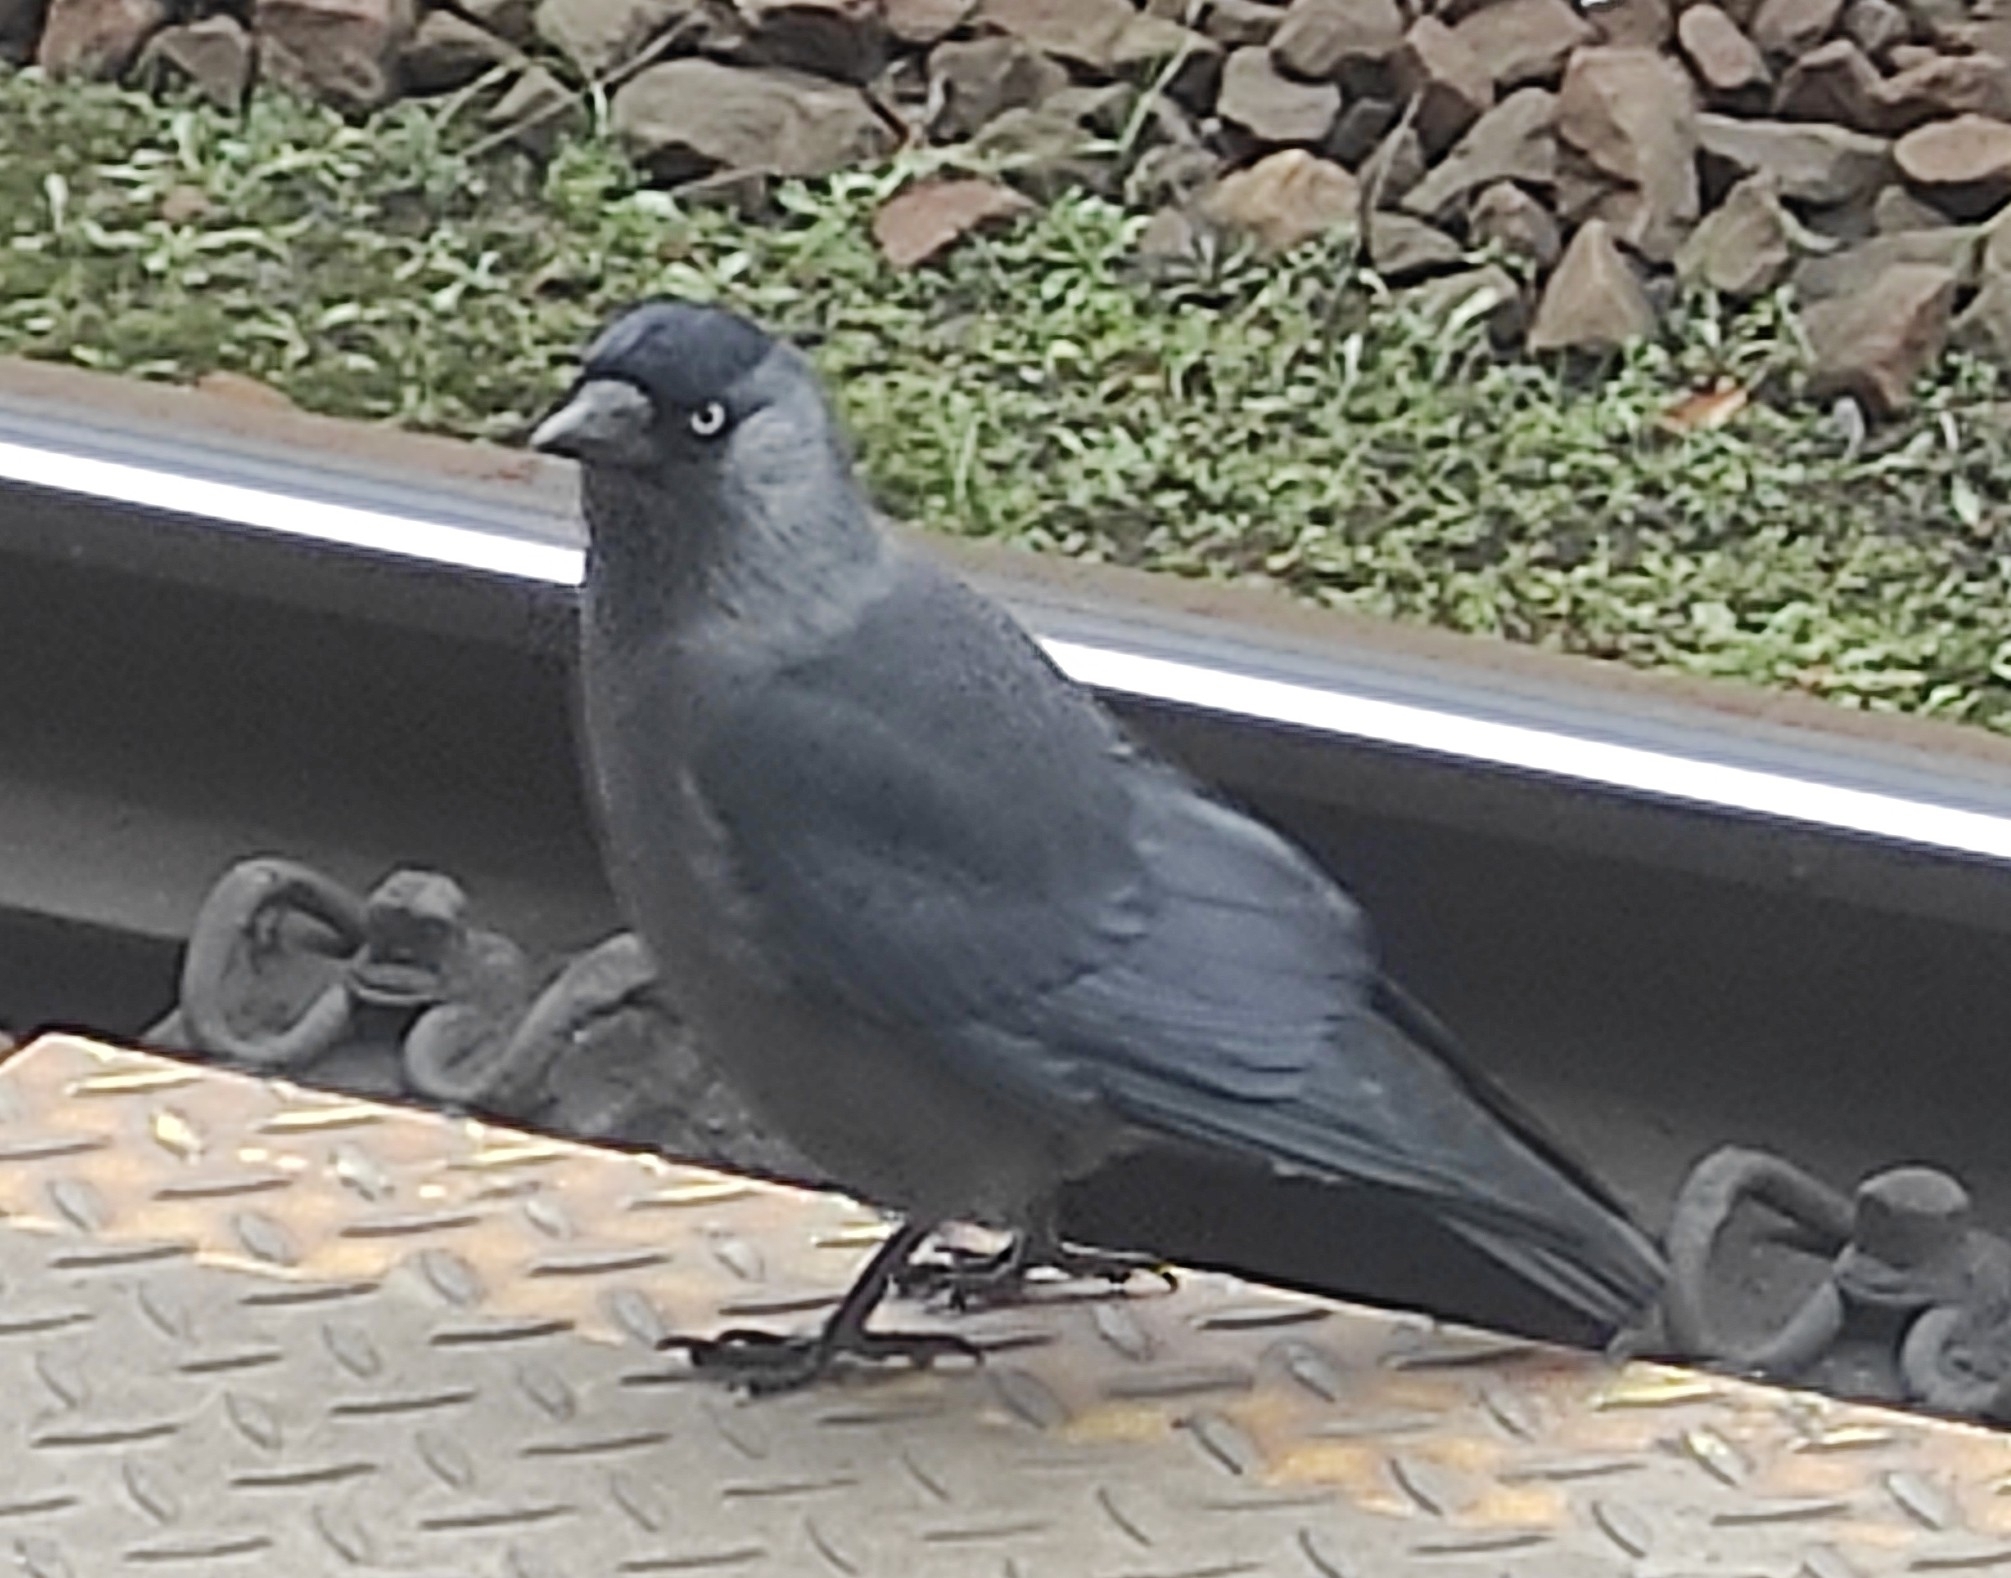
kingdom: Animalia
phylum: Chordata
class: Aves
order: Passeriformes
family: Corvidae
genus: Coloeus
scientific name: Coloeus monedula
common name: Western jackdaw
